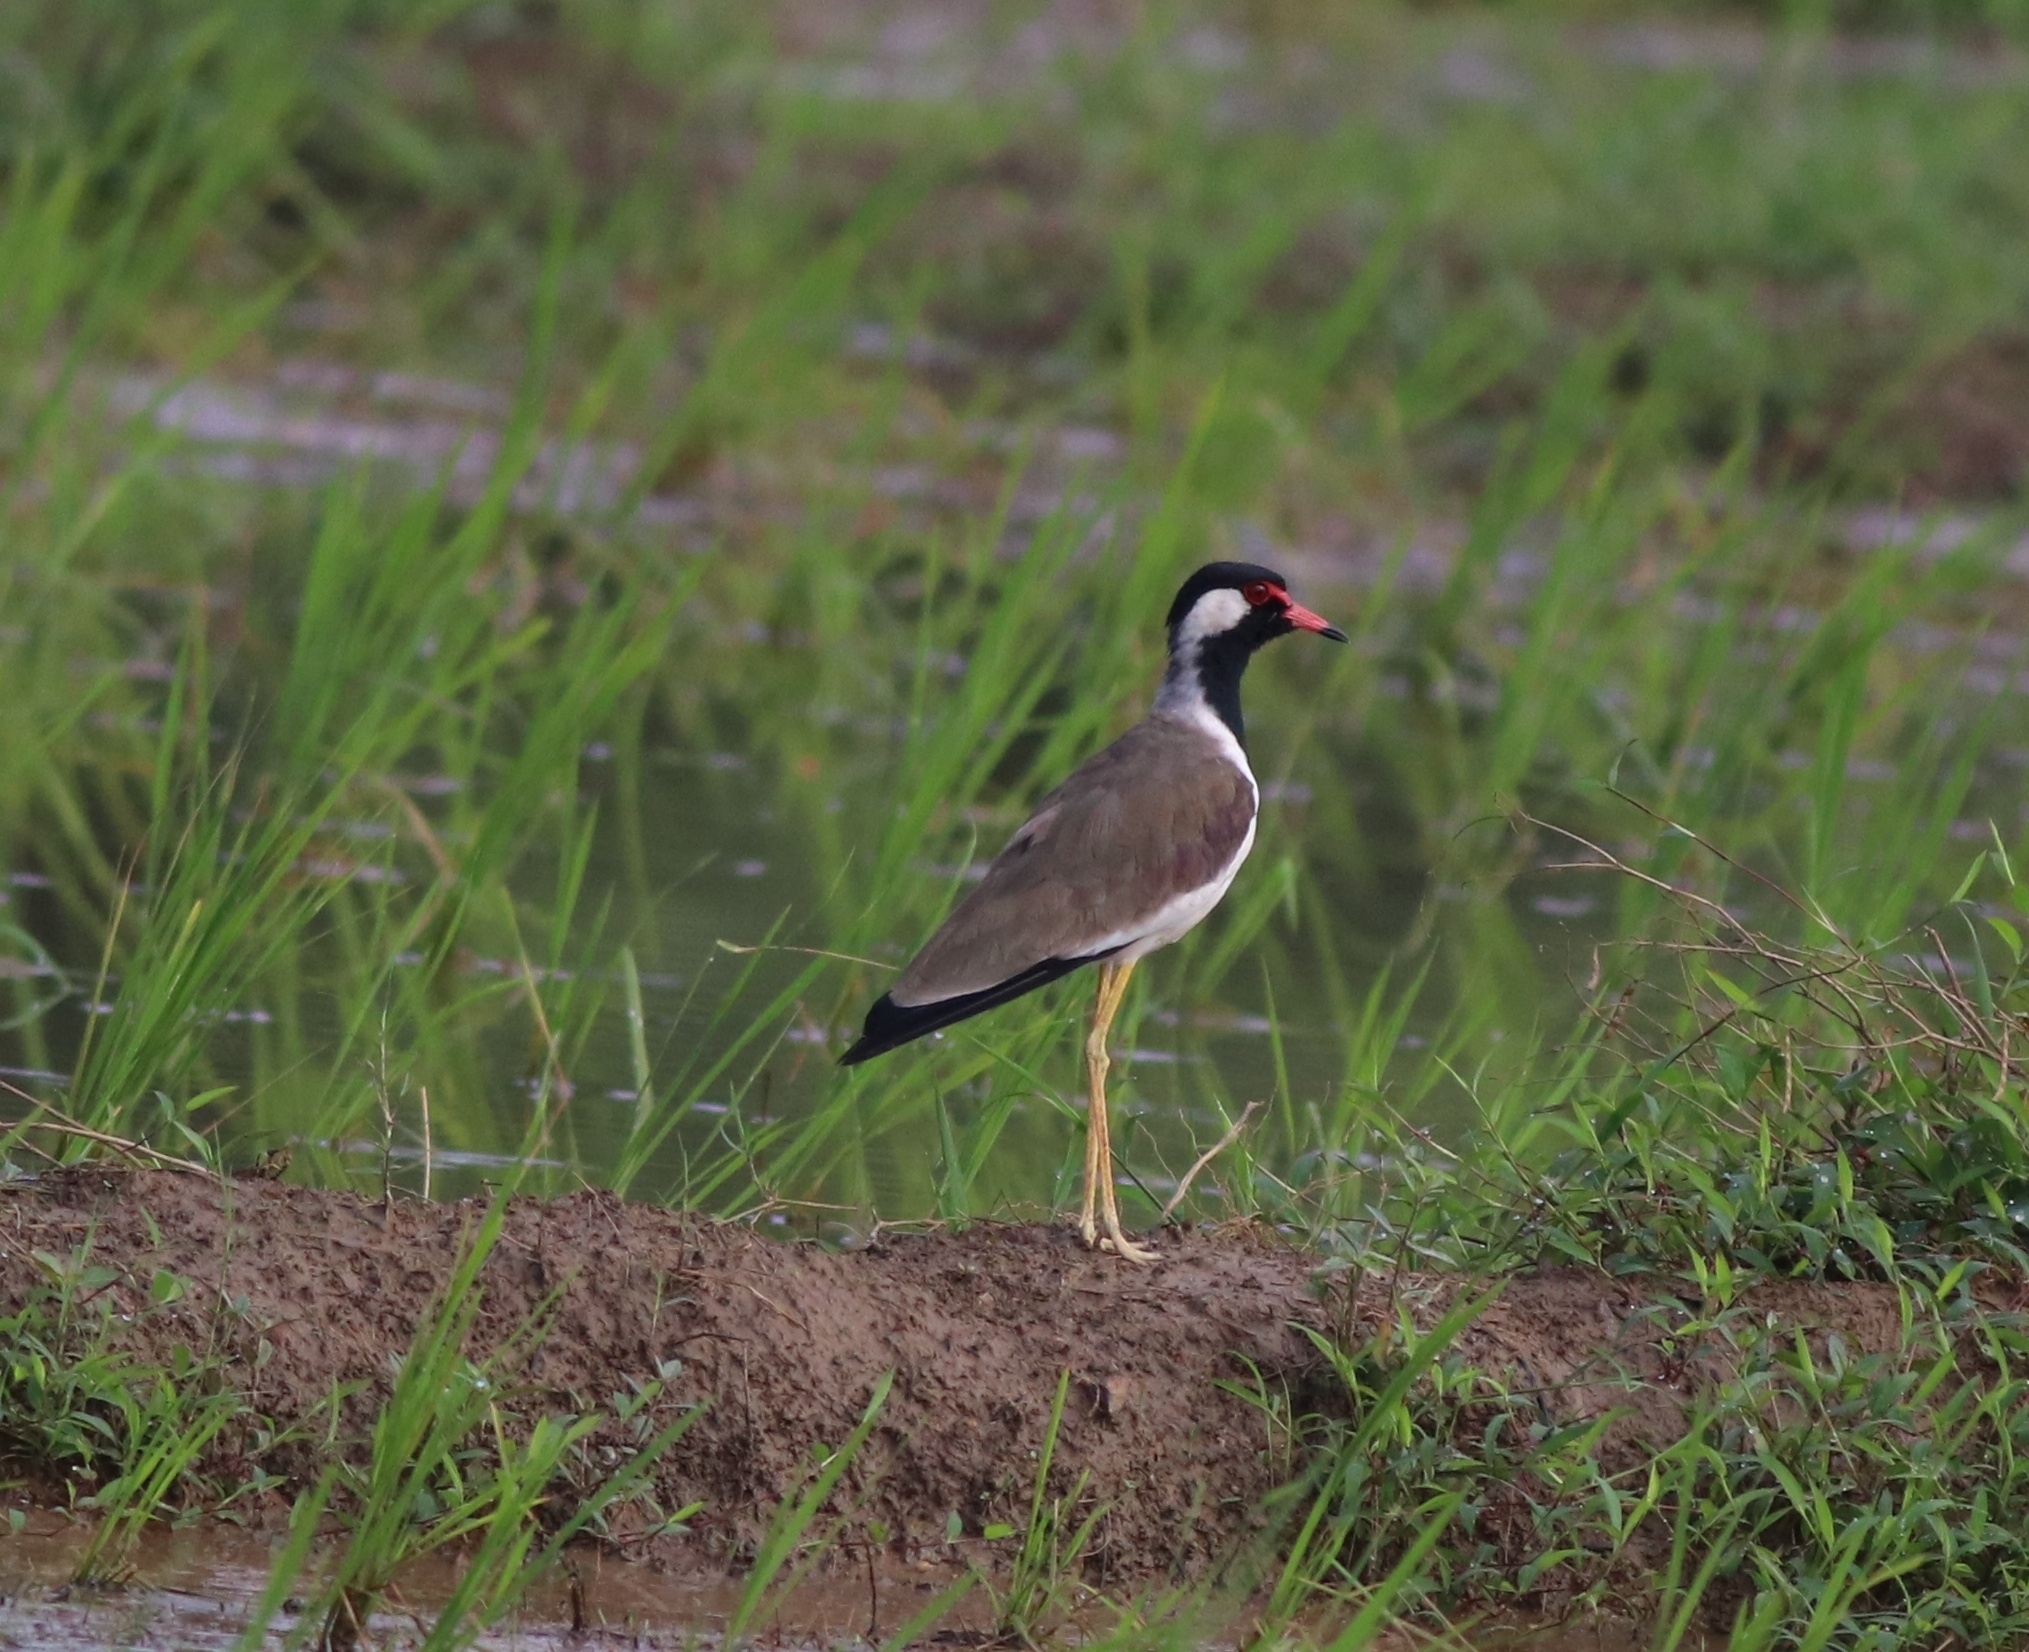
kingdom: Animalia
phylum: Chordata
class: Aves
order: Charadriiformes
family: Charadriidae
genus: Vanellus
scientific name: Vanellus indicus
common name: Red-wattled lapwing
